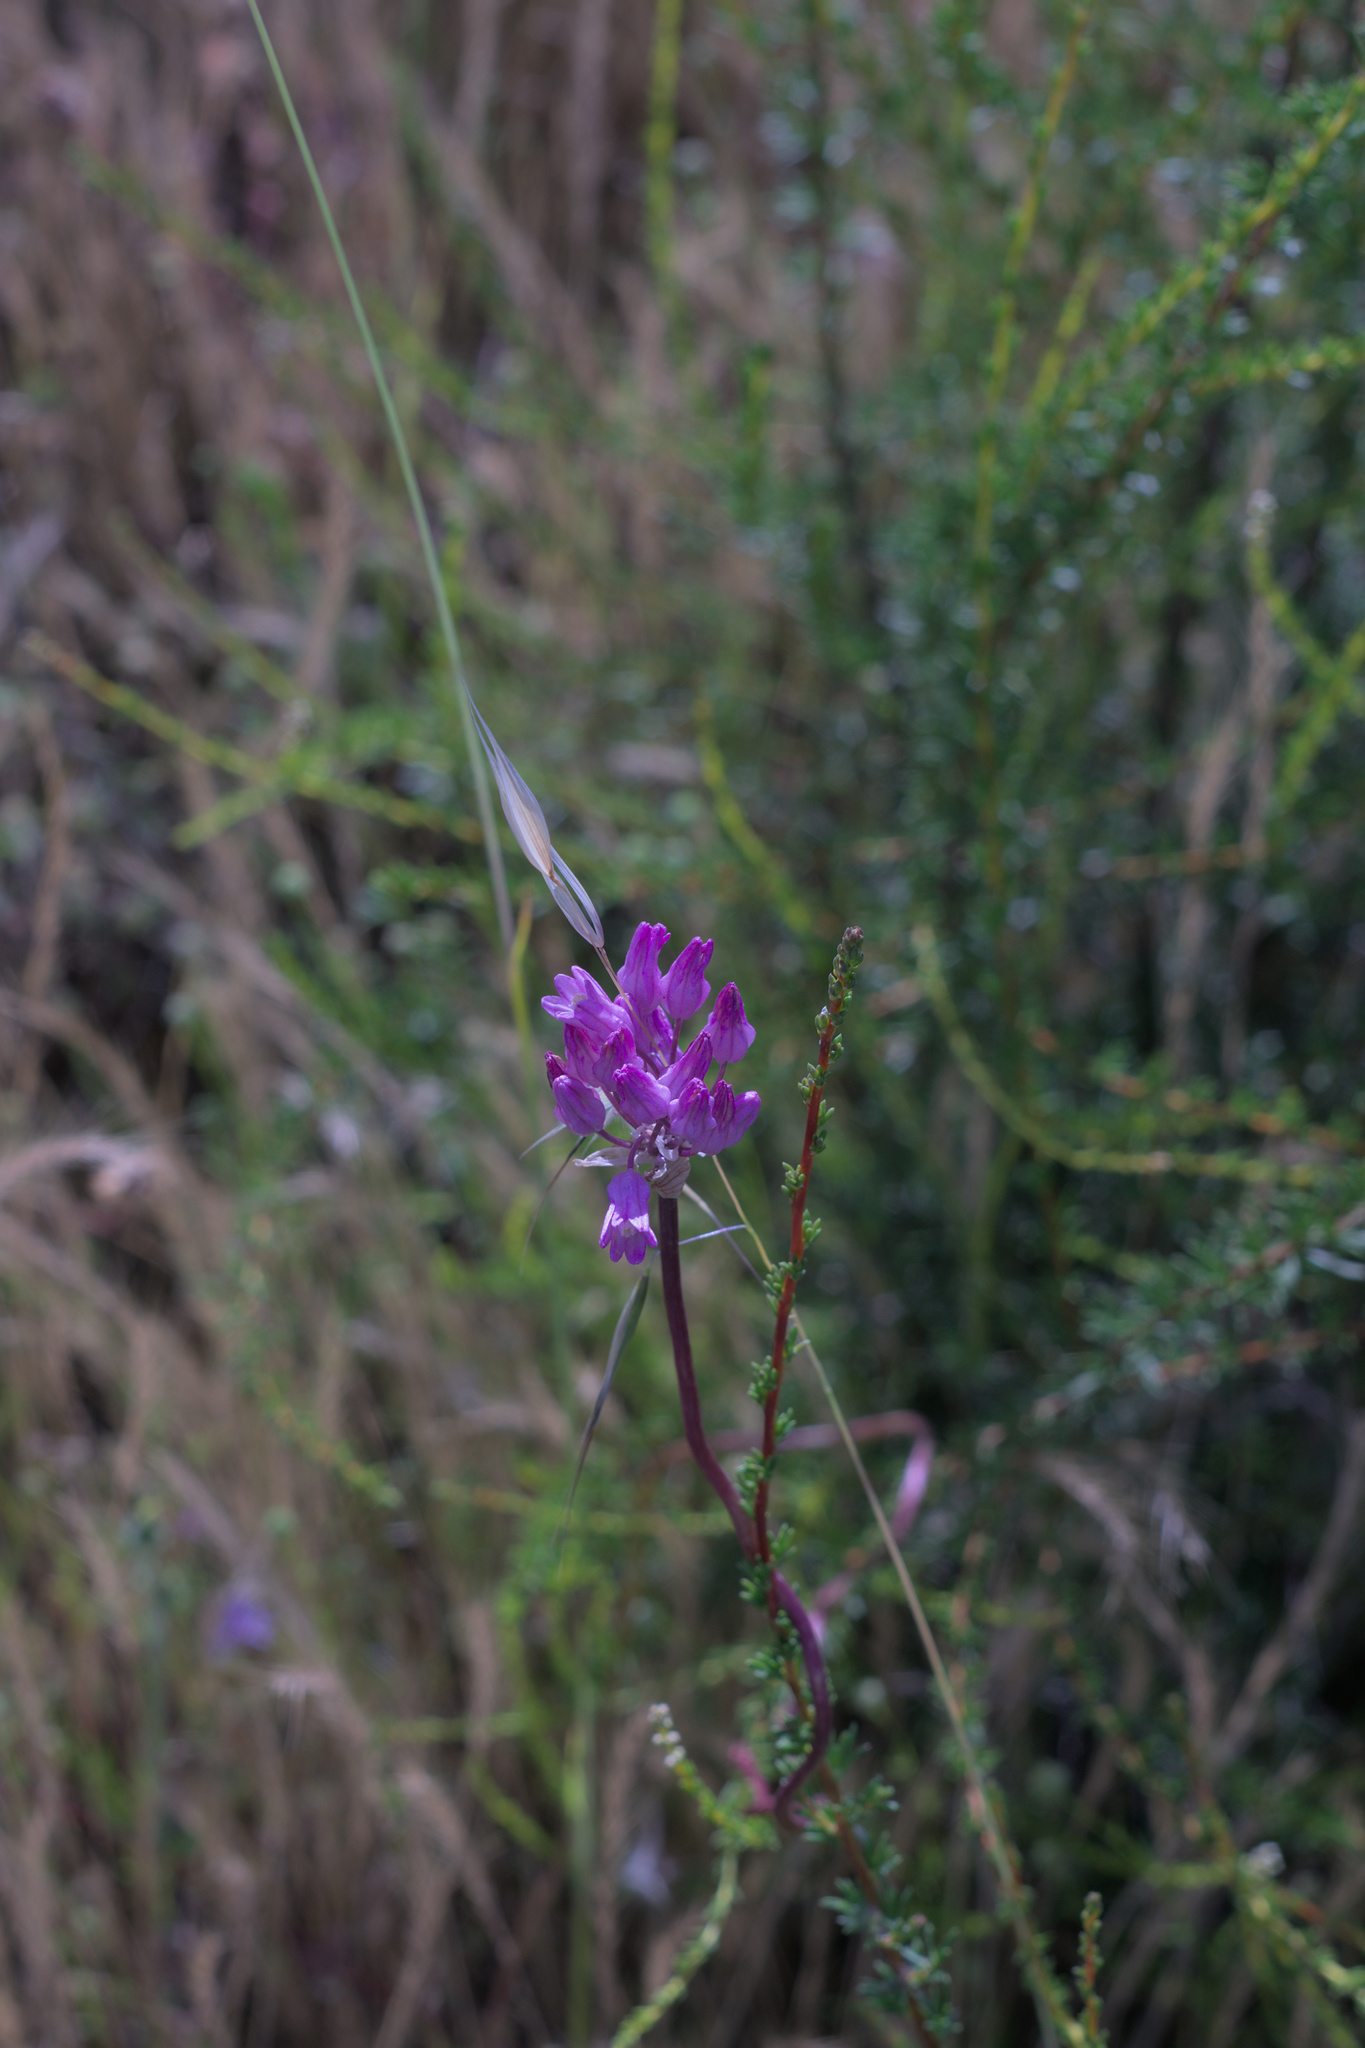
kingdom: Plantae
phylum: Tracheophyta
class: Liliopsida
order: Asparagales
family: Asparagaceae
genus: Dichelostemma
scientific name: Dichelostemma volubile
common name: Trining brodiaea
